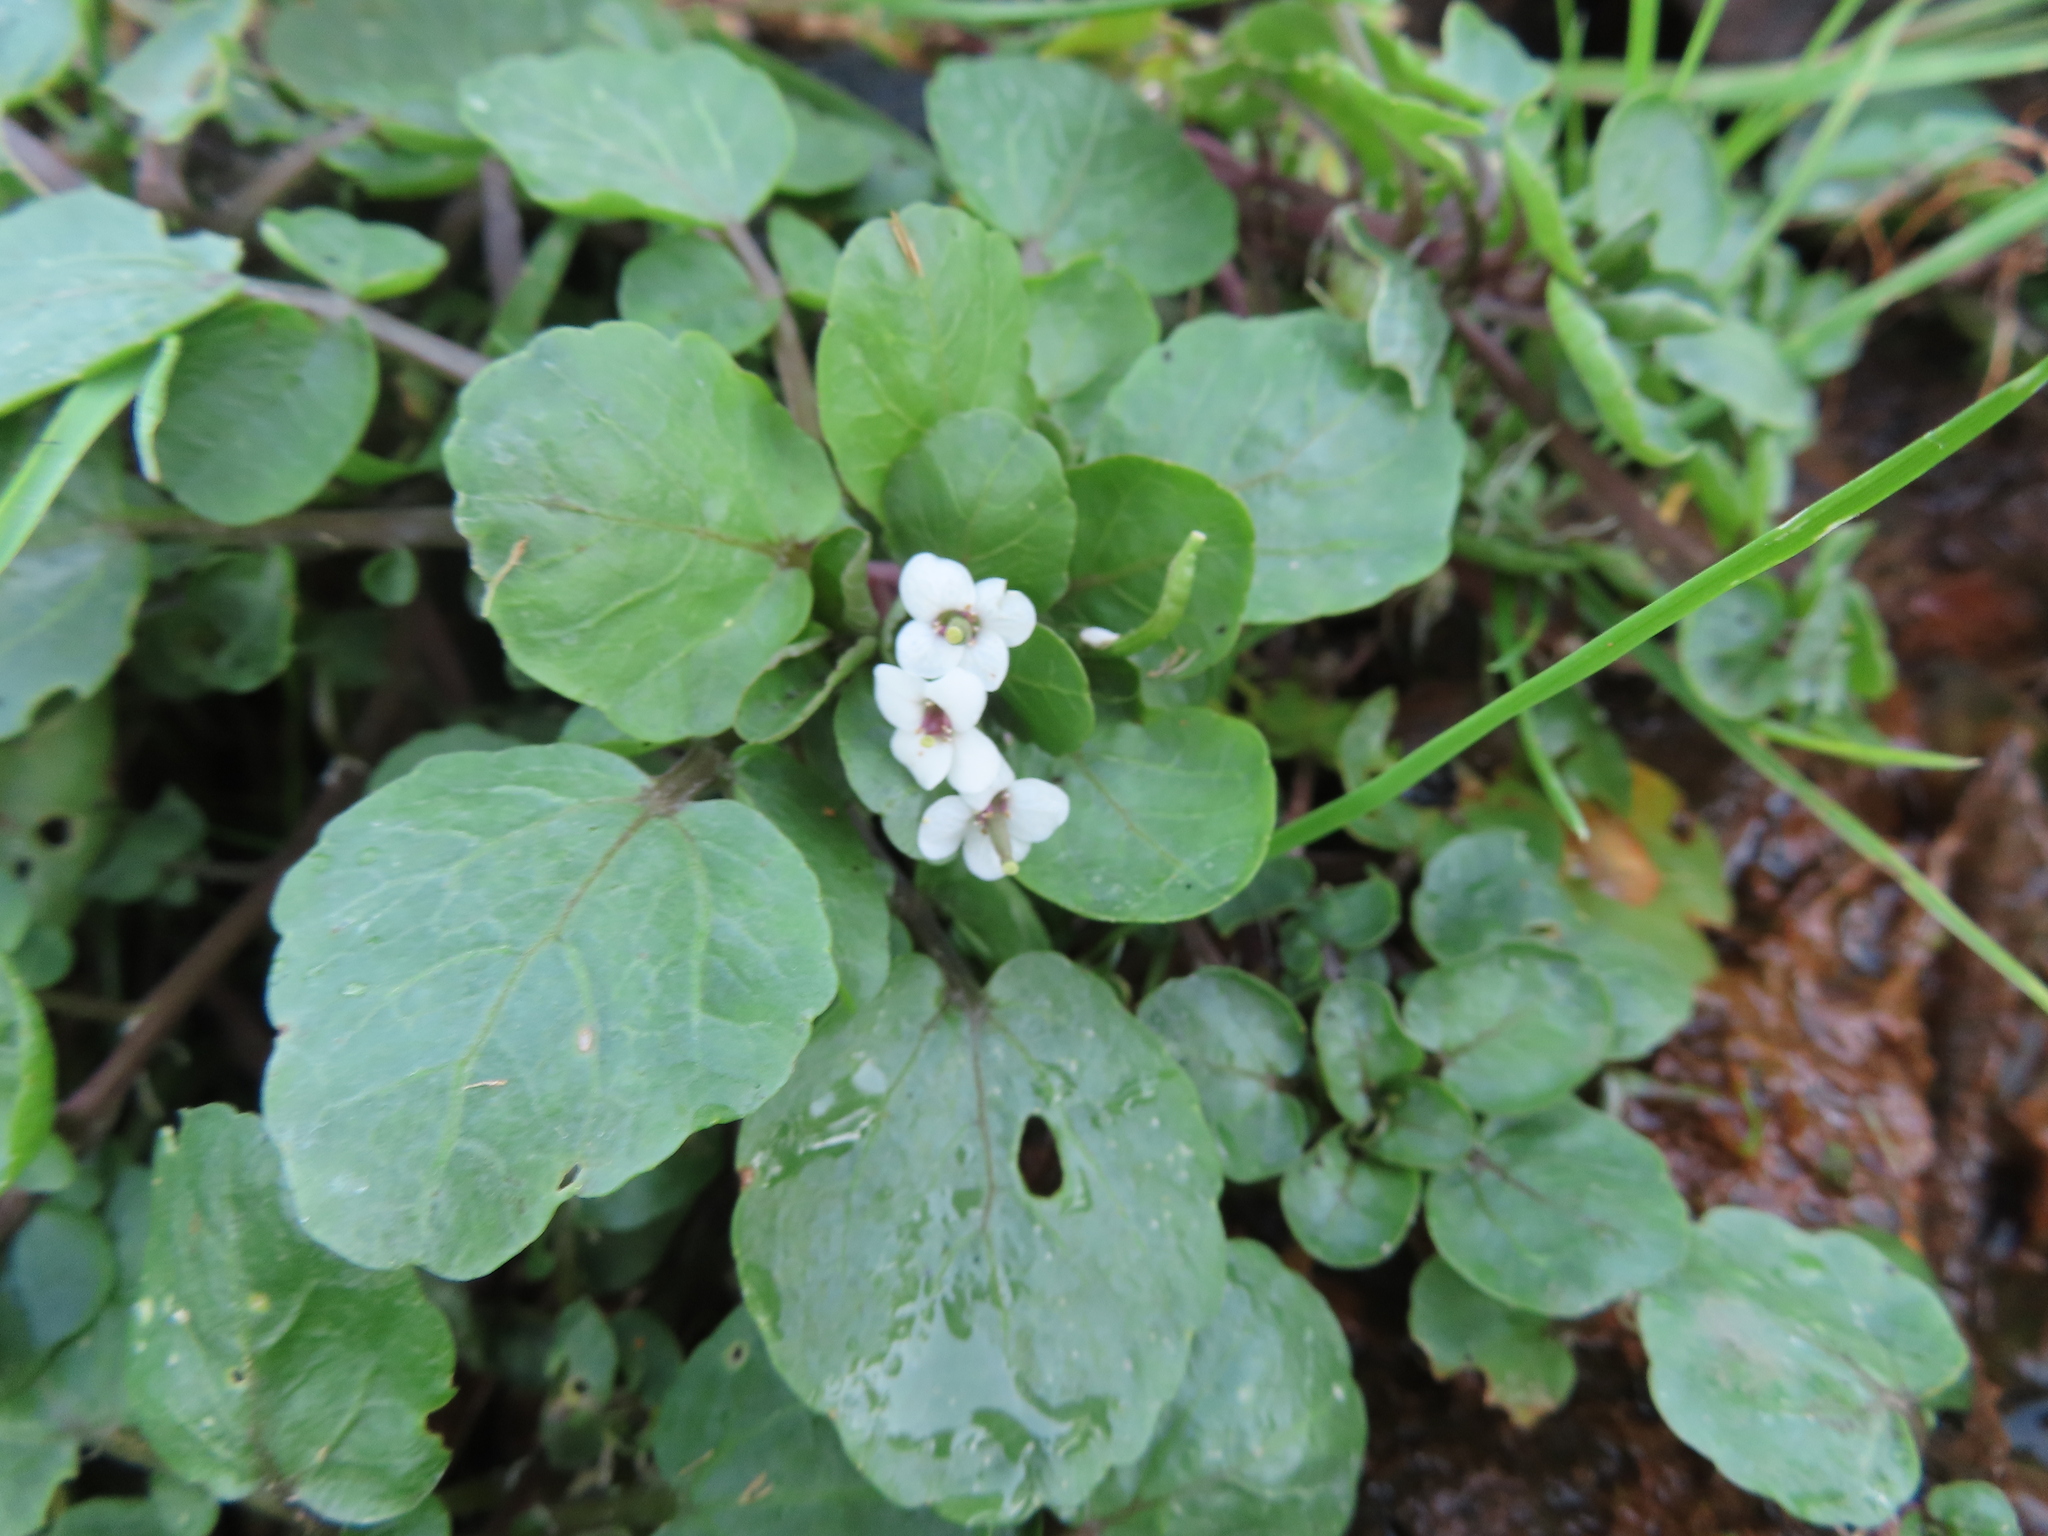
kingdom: Plantae
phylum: Tracheophyta
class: Magnoliopsida
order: Brassicales
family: Brassicaceae
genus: Nasturtium
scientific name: Nasturtium officinale
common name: Watercress
